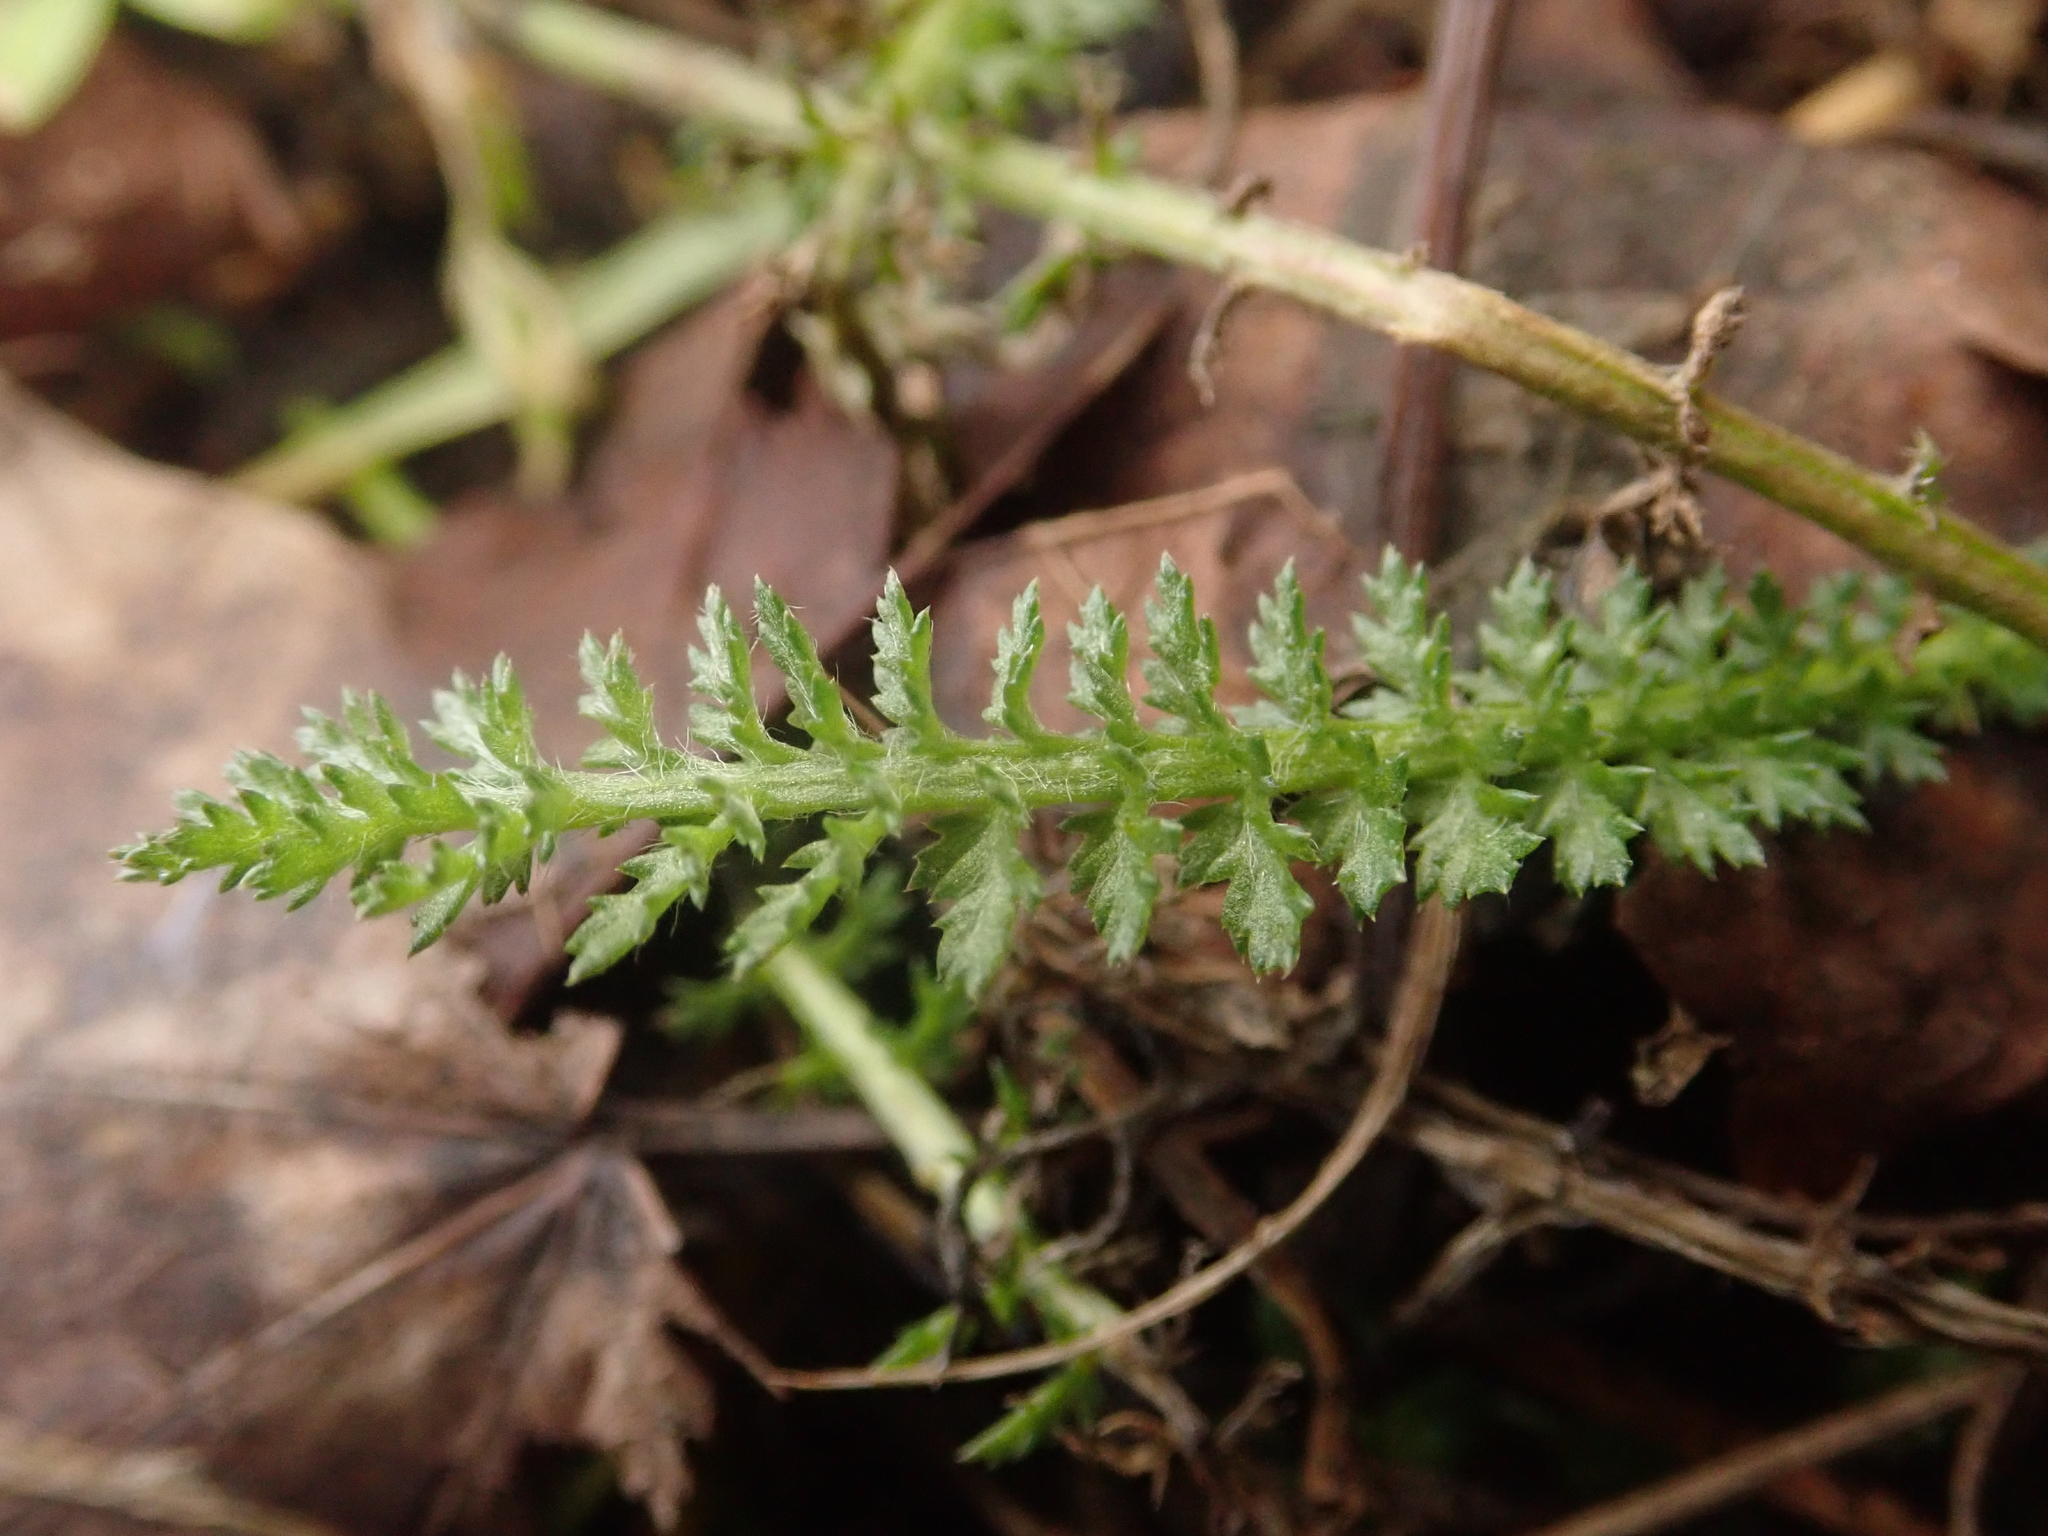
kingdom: Plantae
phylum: Tracheophyta
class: Magnoliopsida
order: Asterales
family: Asteraceae
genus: Achillea
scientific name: Achillea millefolium
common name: Yarrow
